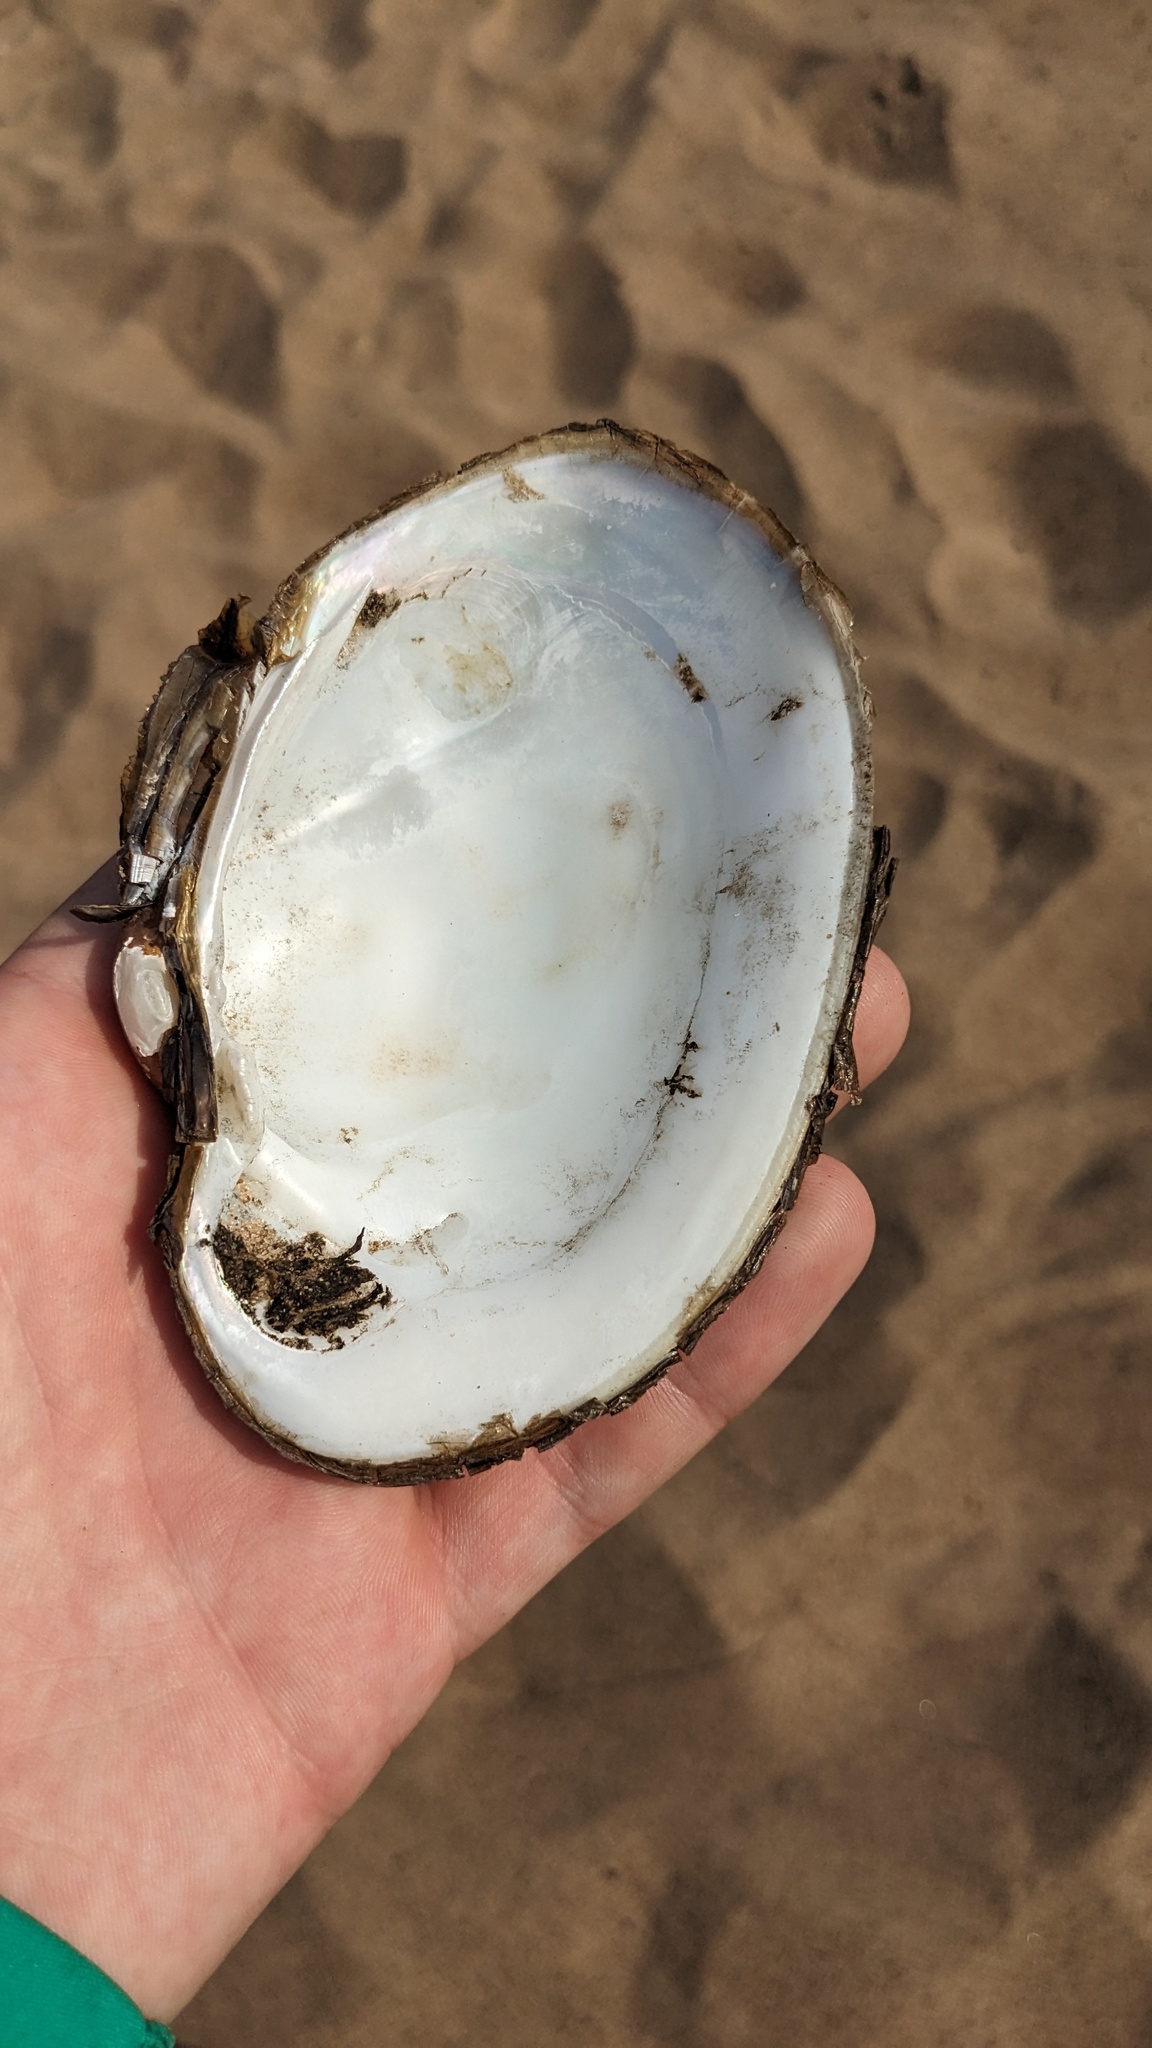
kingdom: Animalia
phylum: Mollusca
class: Bivalvia
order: Unionida
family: Unionidae
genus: Lampsilis
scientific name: Lampsilis cardium
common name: Plain pocketbook
